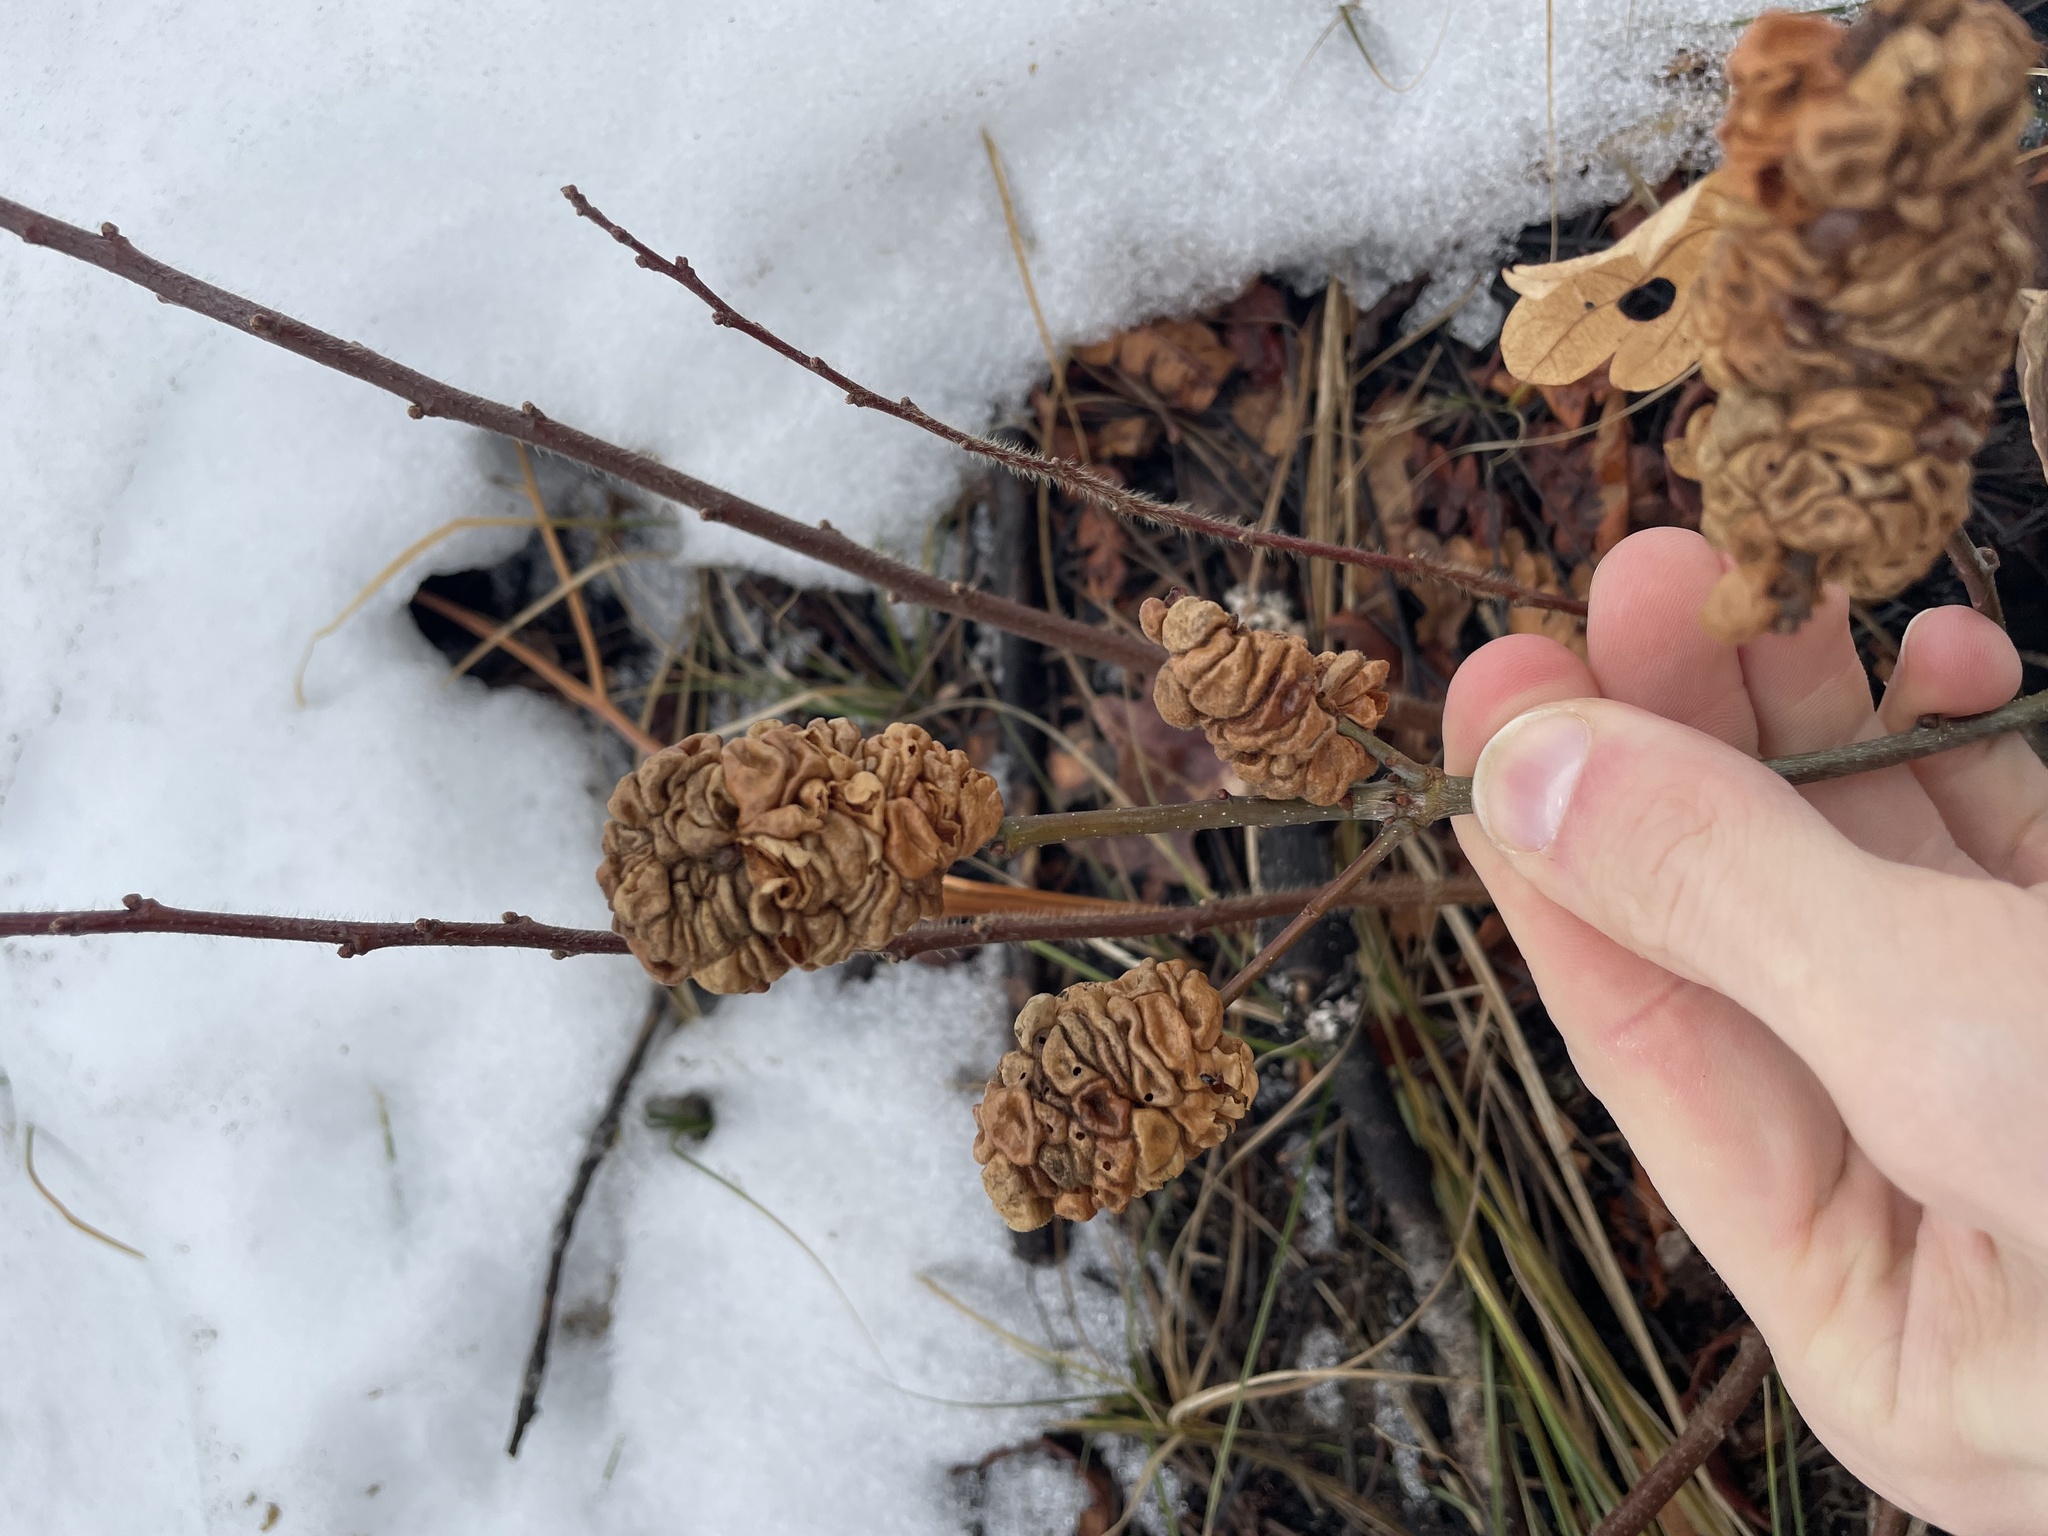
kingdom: Animalia
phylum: Arthropoda
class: Insecta
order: Hymenoptera
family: Cynipidae
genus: Trigonaspis
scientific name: Trigonaspis quercusforticornis
